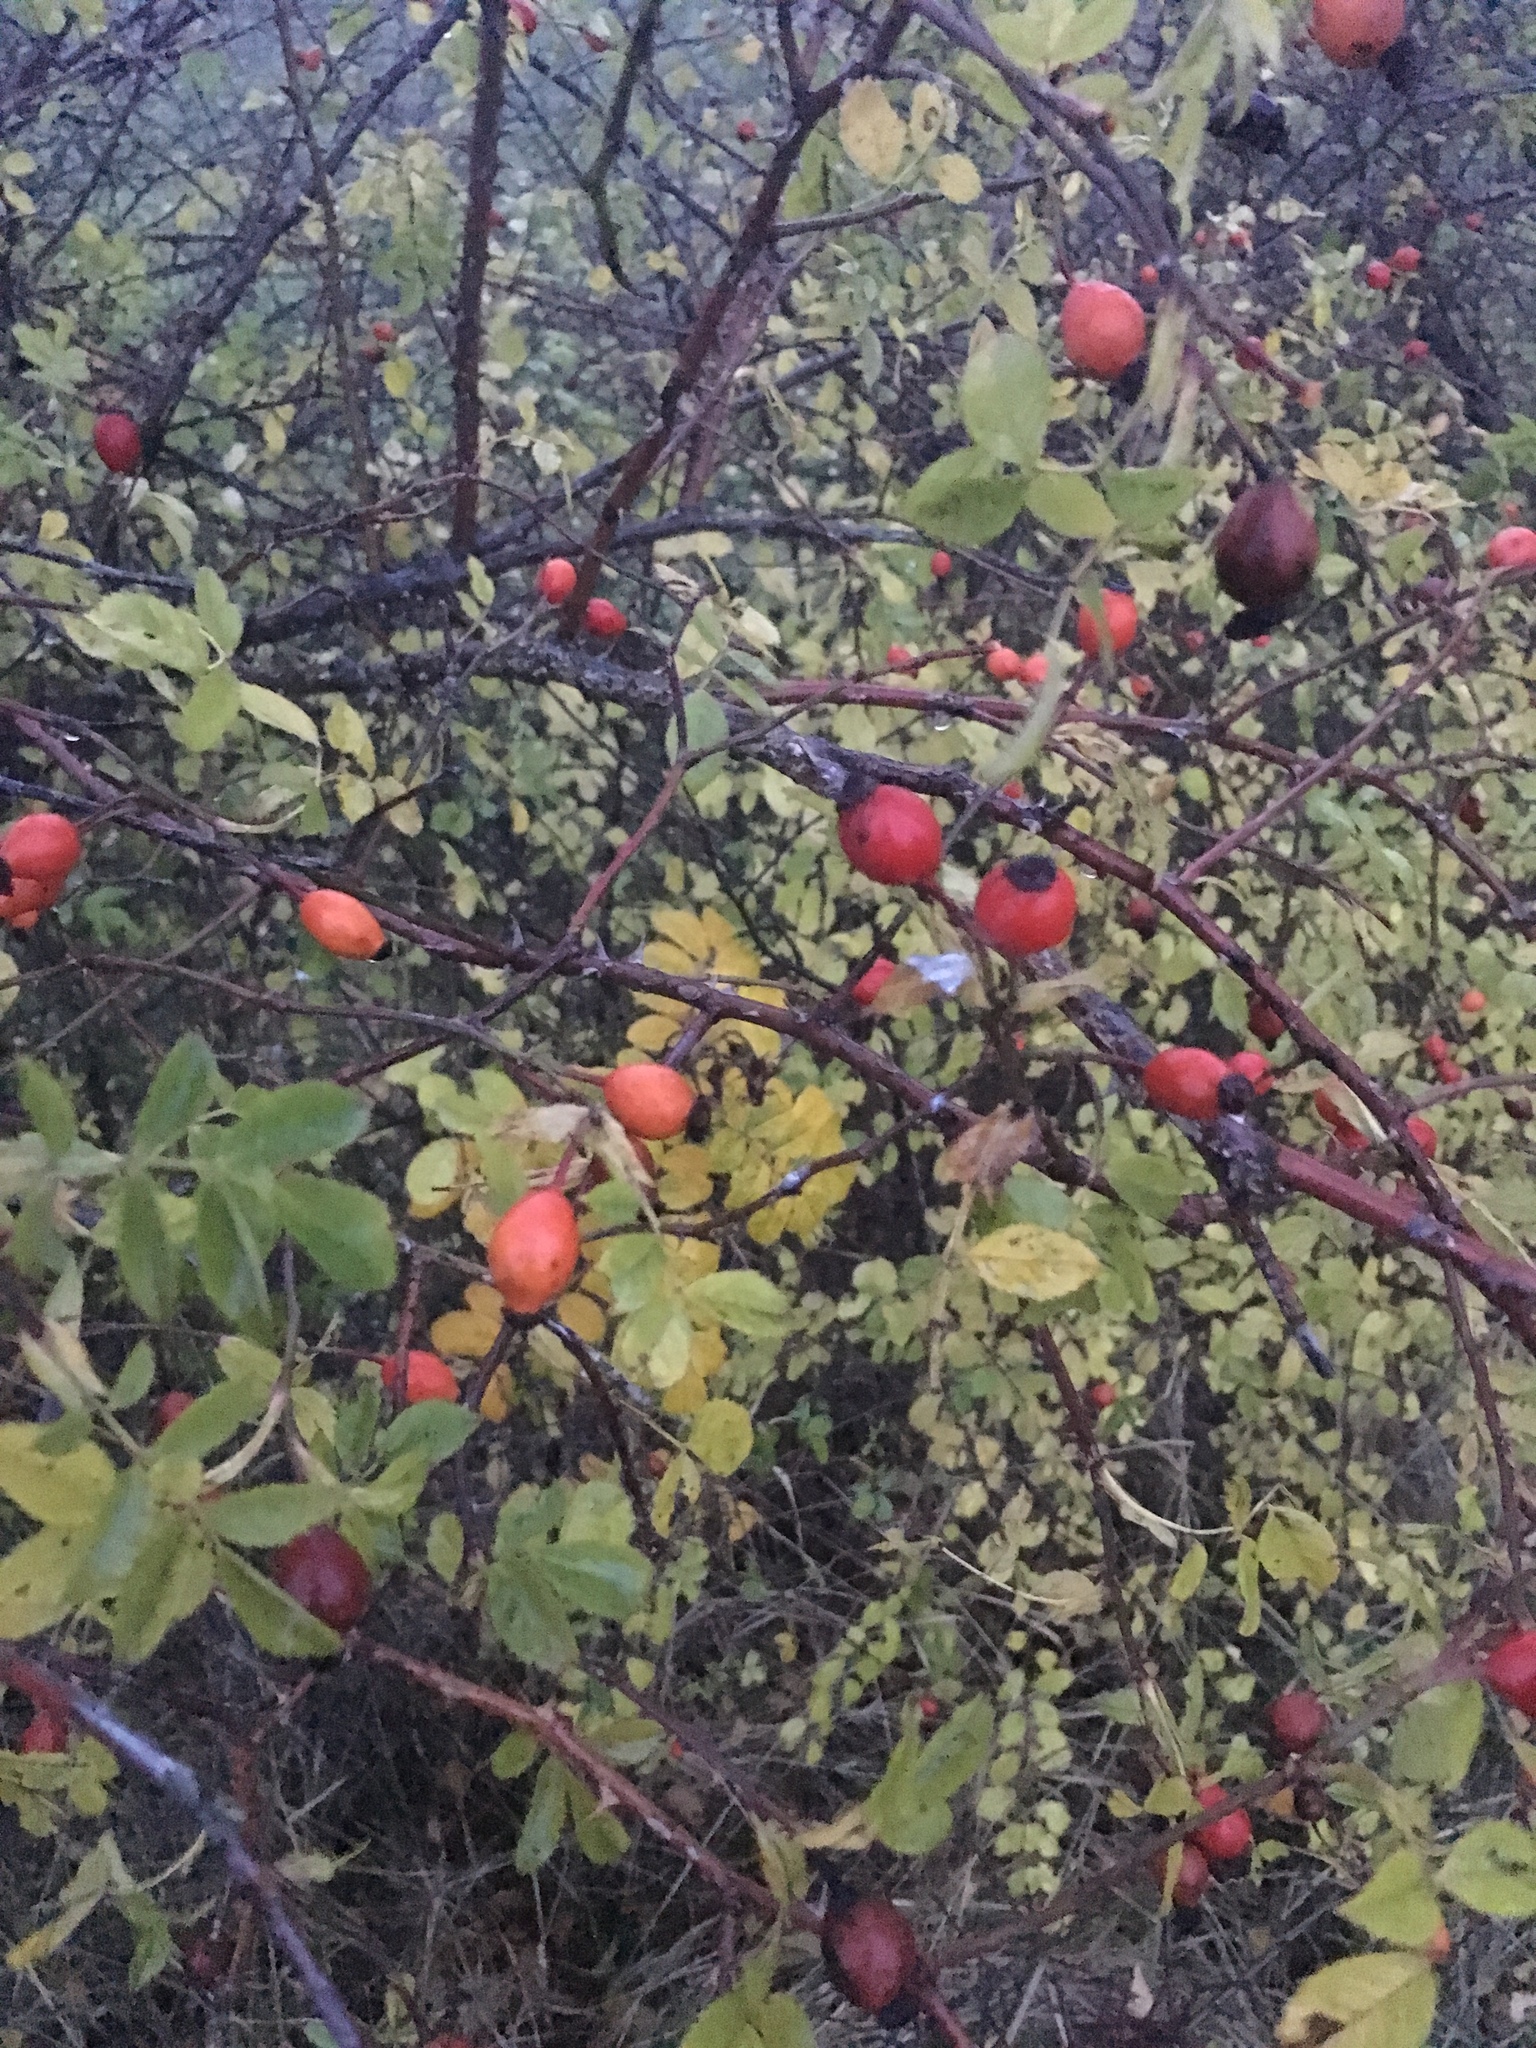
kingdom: Plantae
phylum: Tracheophyta
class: Magnoliopsida
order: Rosales
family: Rosaceae
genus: Rosa
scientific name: Rosa canina
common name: Dog rose
